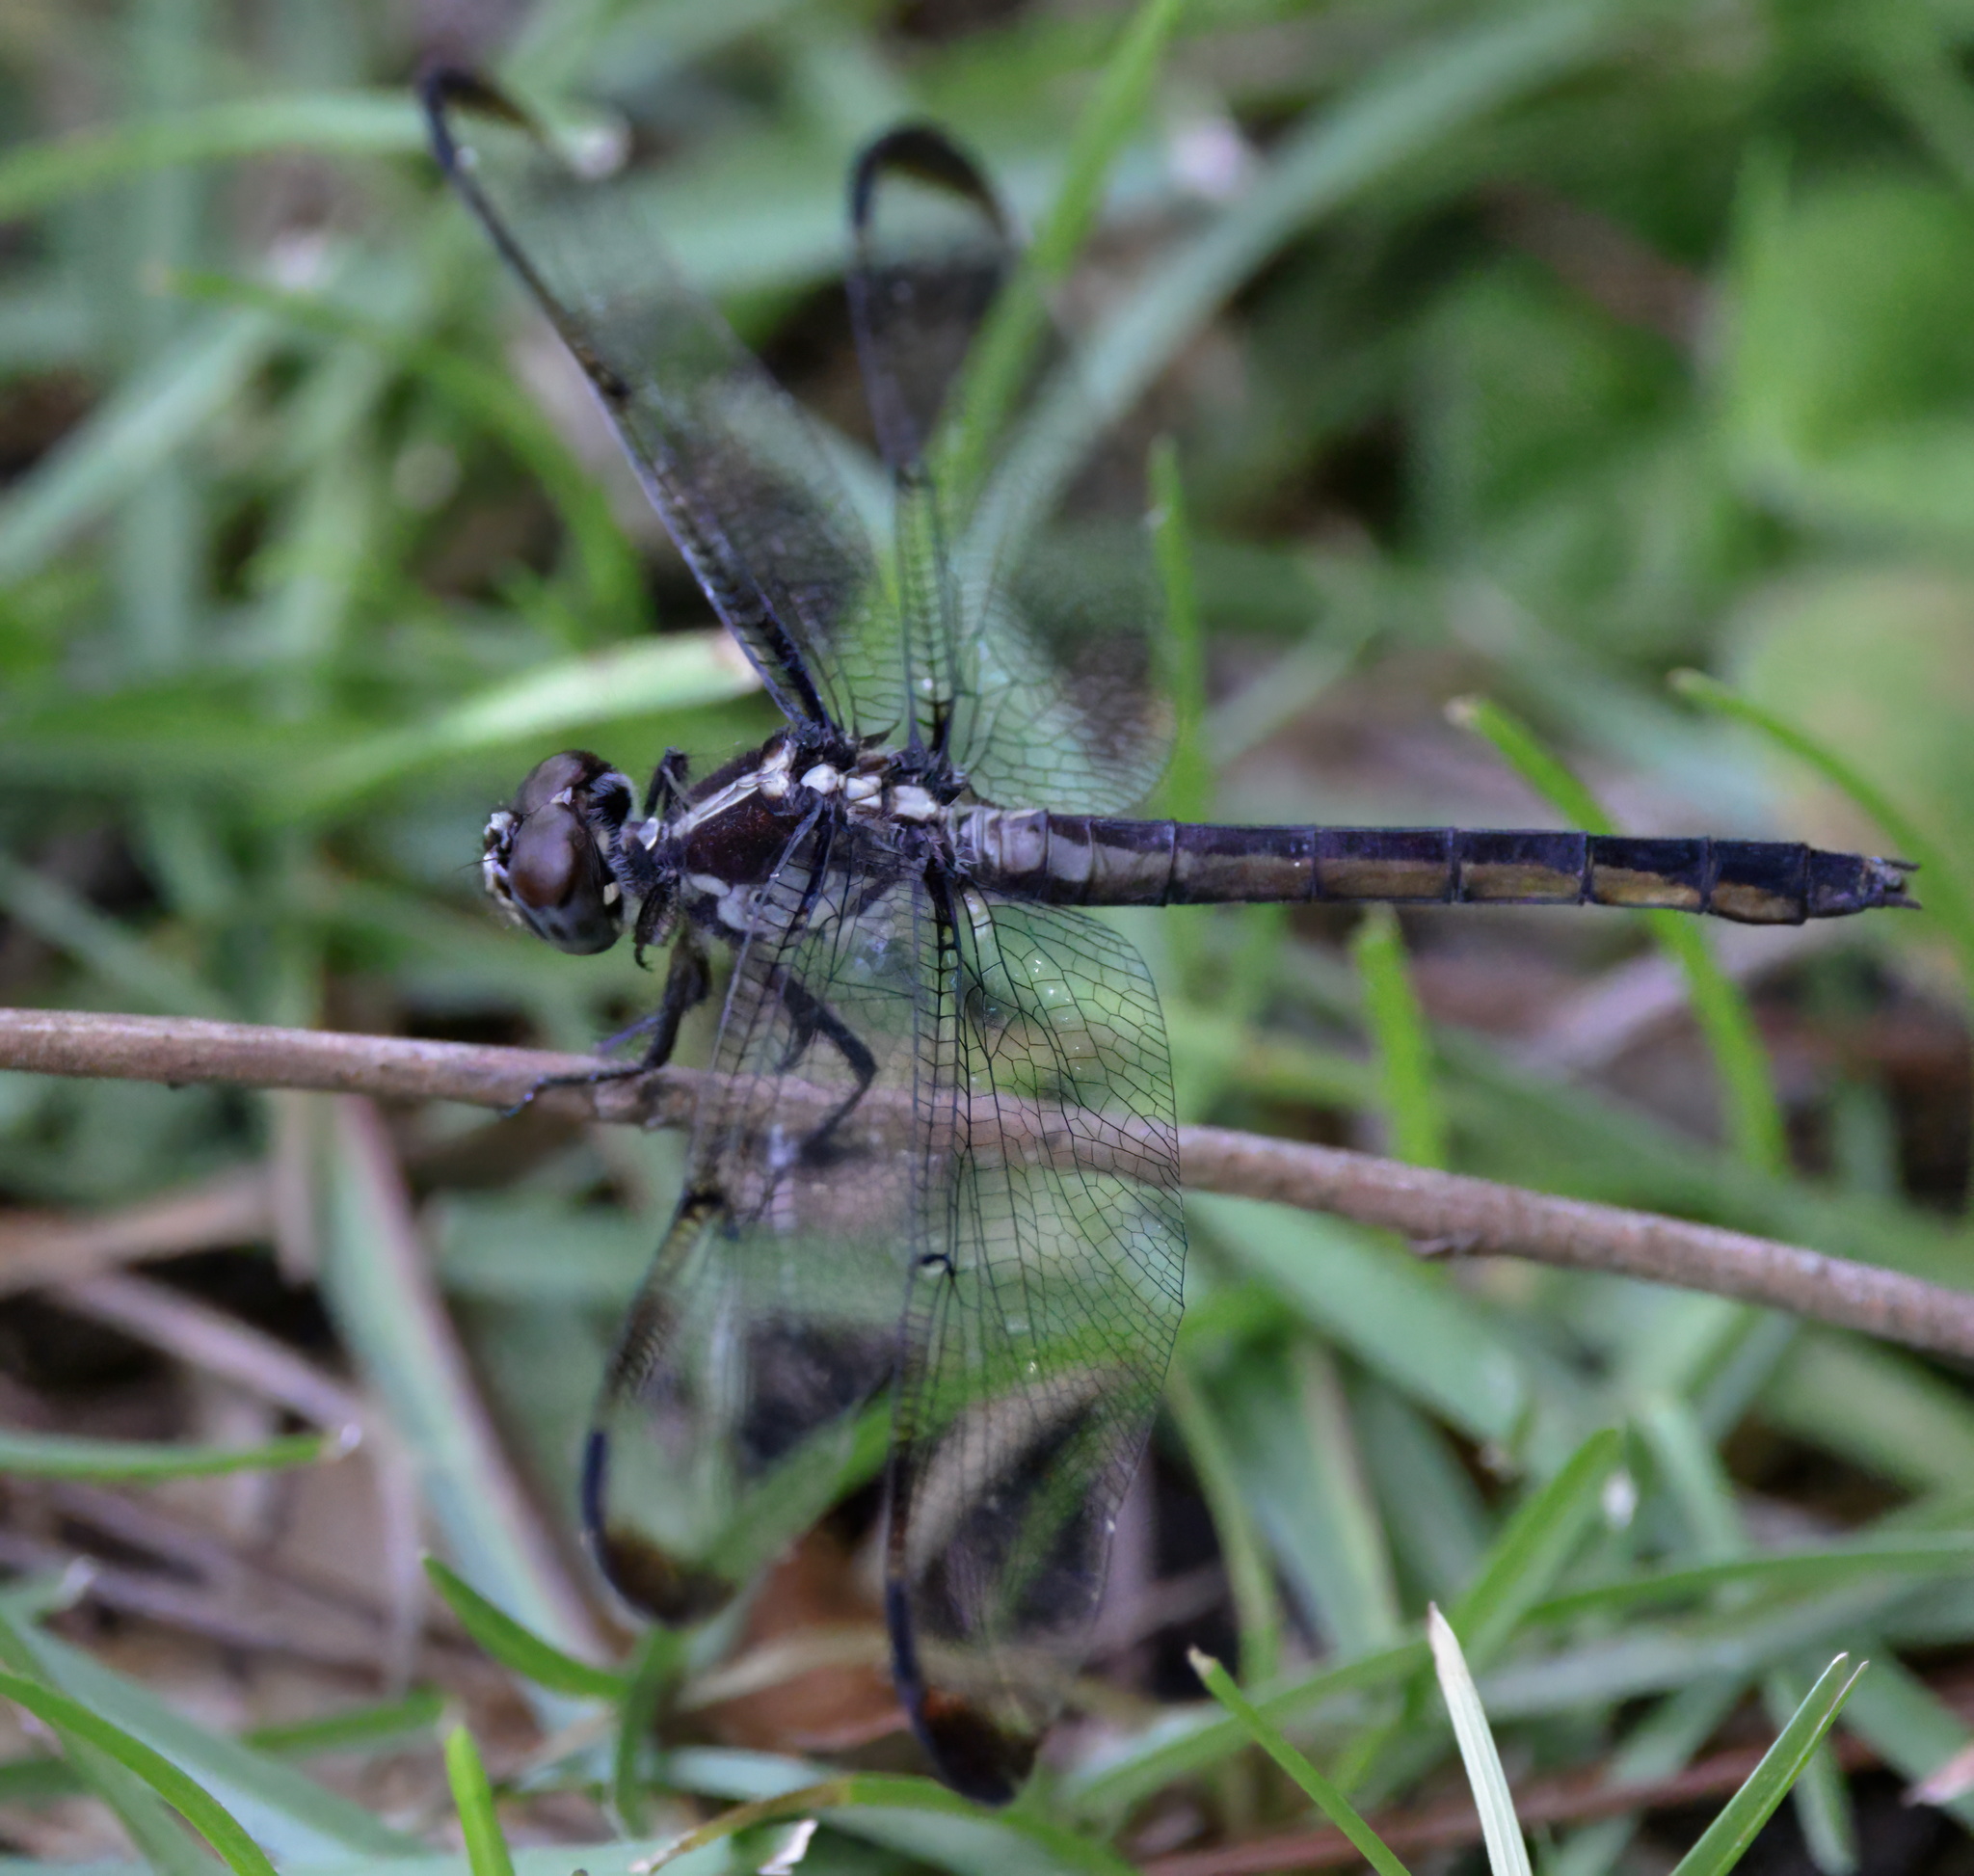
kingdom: Animalia
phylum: Arthropoda
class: Insecta
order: Odonata
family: Libellulidae
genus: Libellula
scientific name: Libellula vibrans
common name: Great blue skimmer
